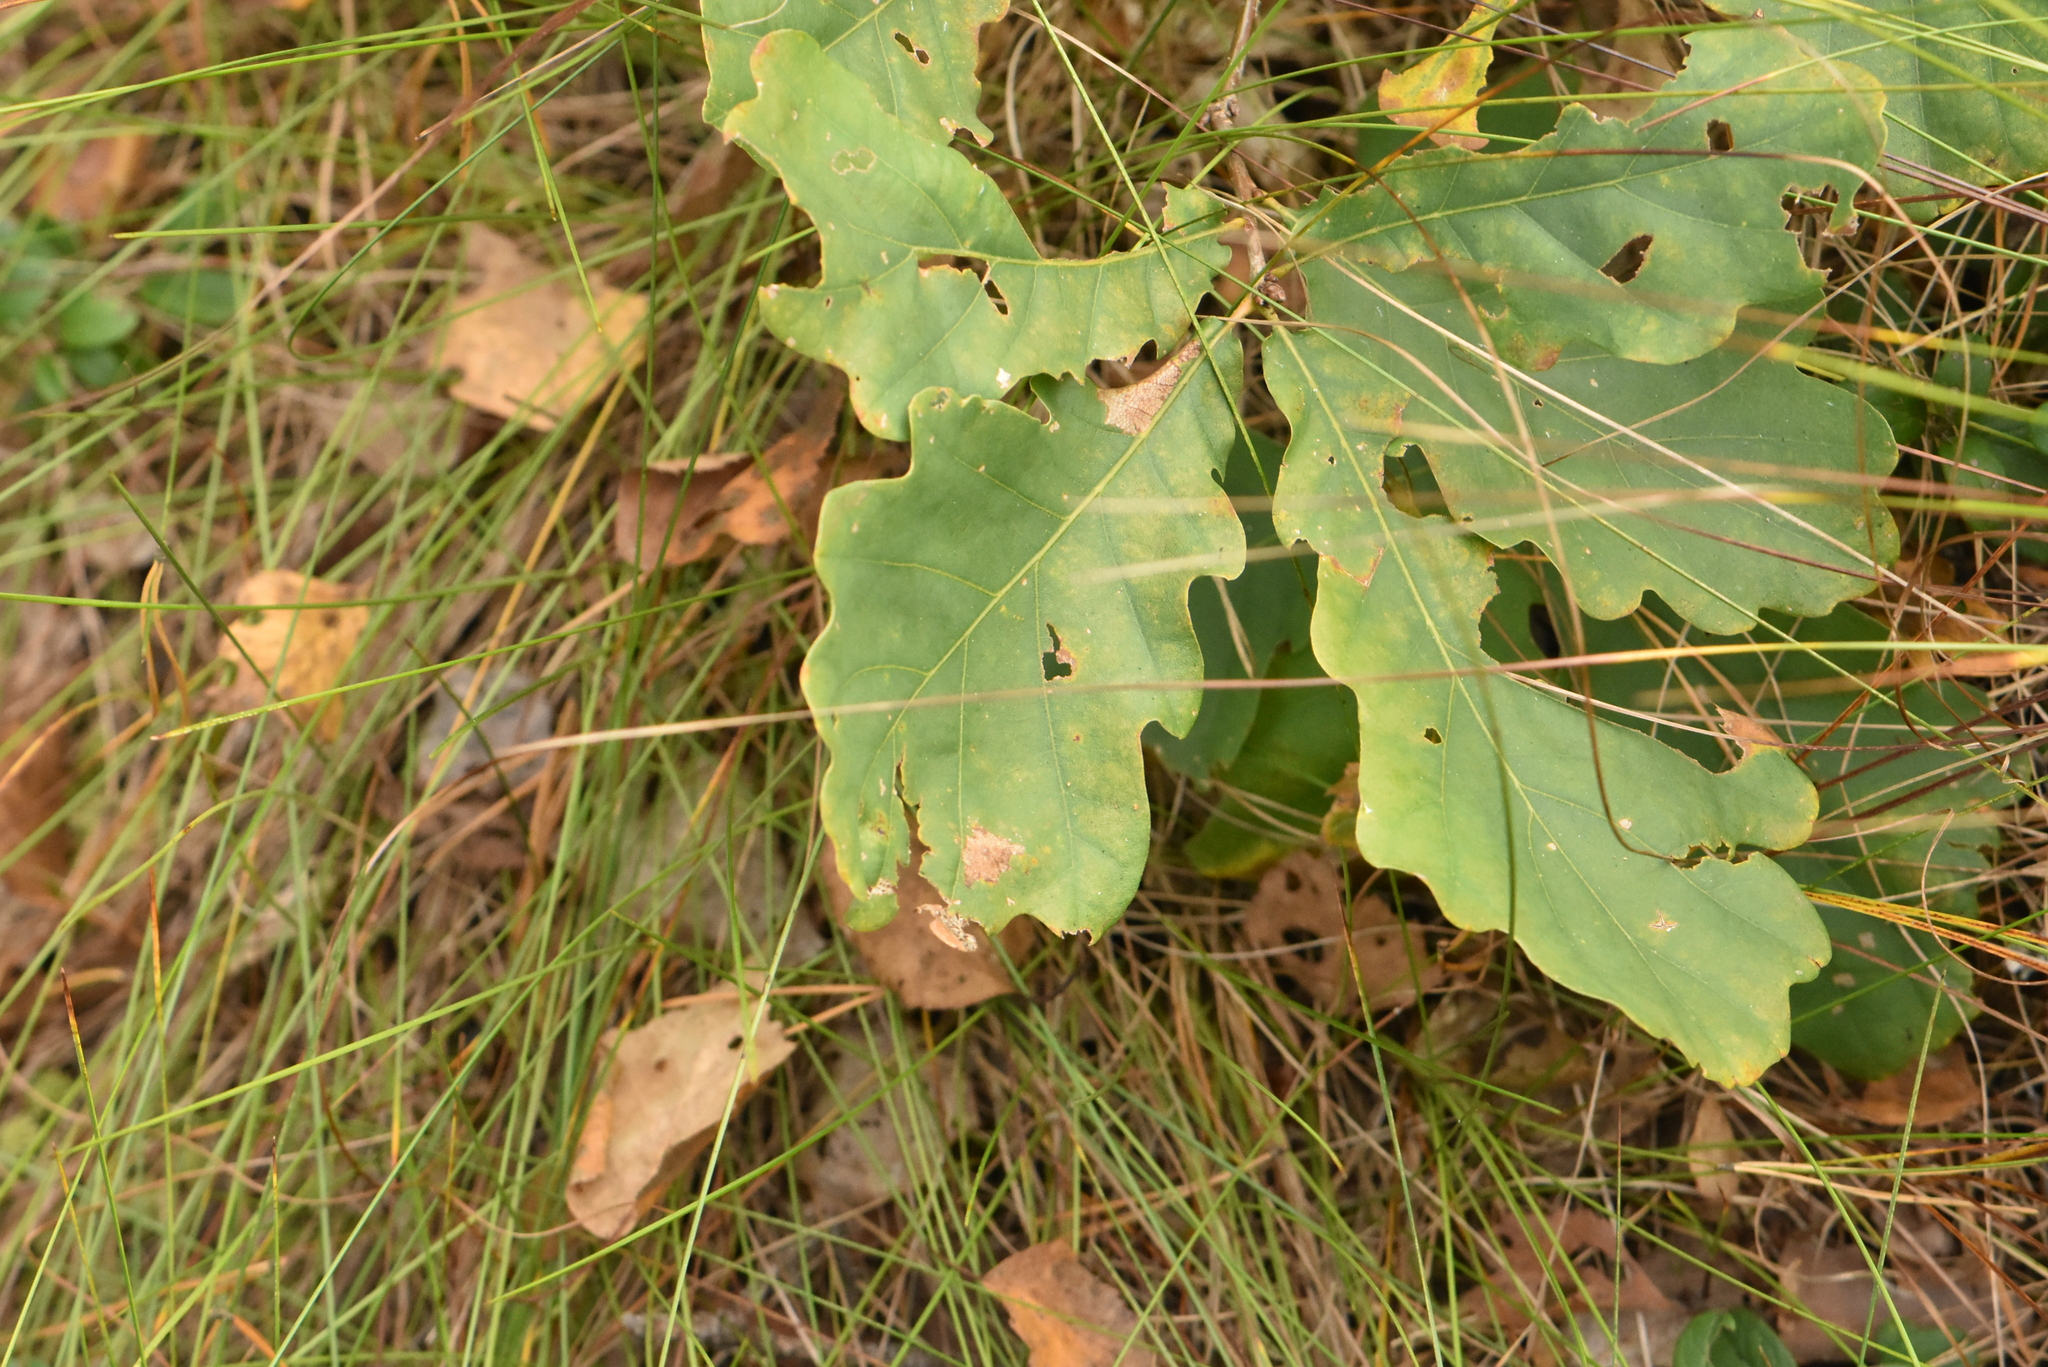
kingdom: Plantae
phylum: Tracheophyta
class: Magnoliopsida
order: Fagales
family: Fagaceae
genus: Quercus
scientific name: Quercus robur
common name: Pedunculate oak
